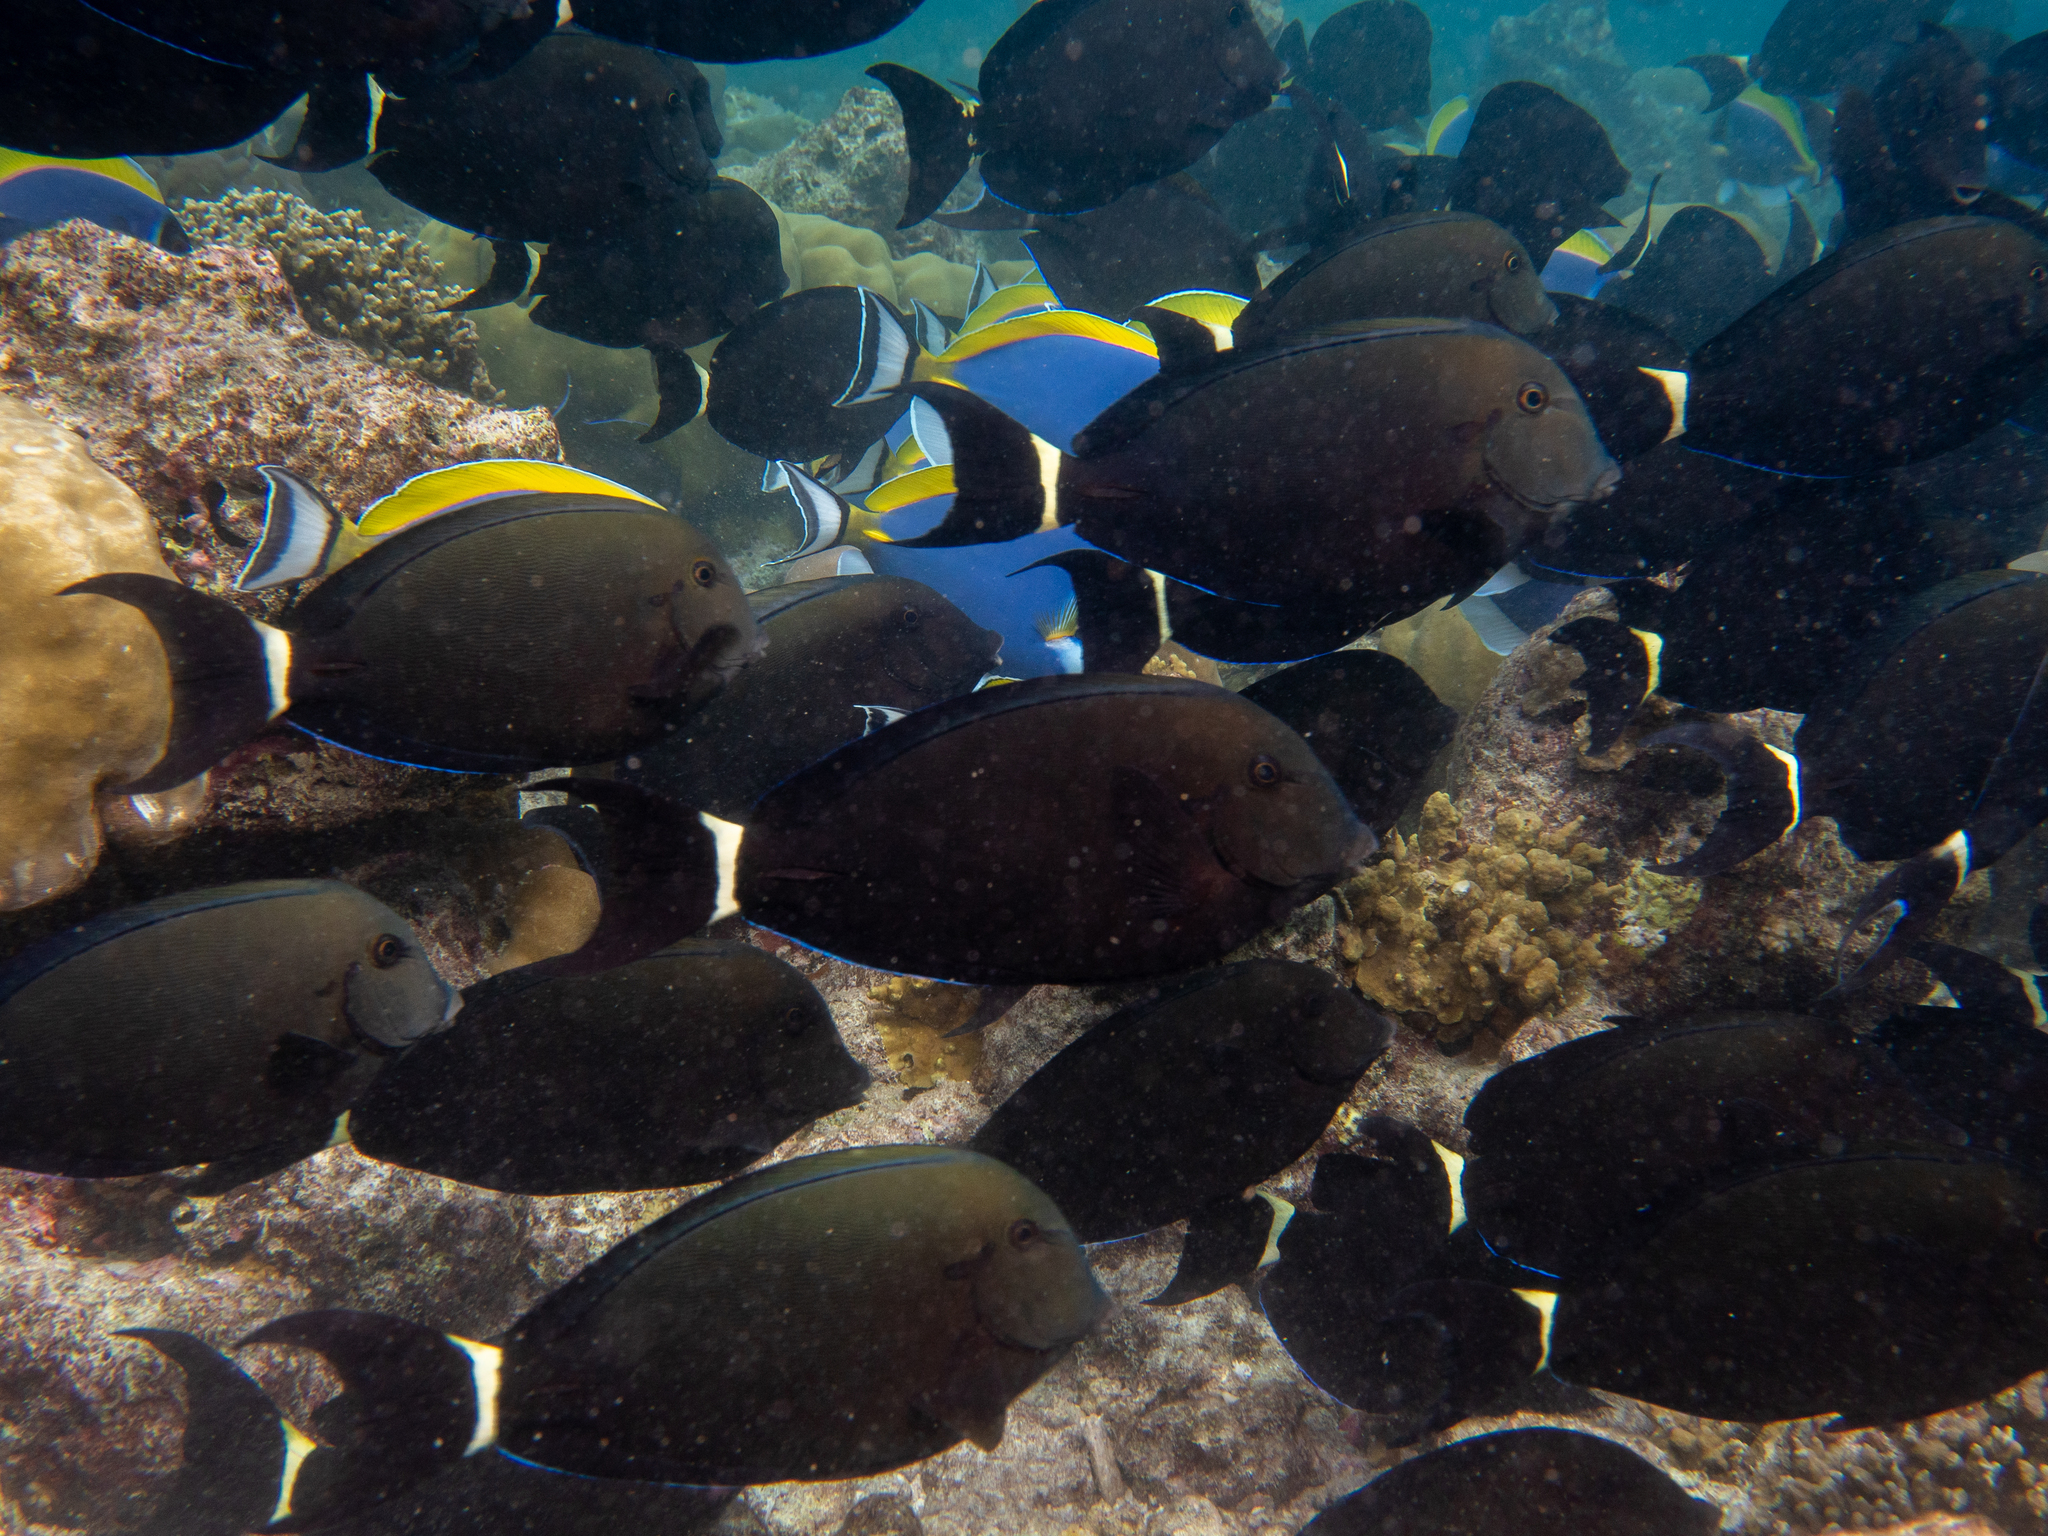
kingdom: Animalia
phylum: Chordata
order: Perciformes
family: Acanthuridae
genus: Acanthurus
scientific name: Acanthurus auranticavus
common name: Orange-socket surgeonfish
